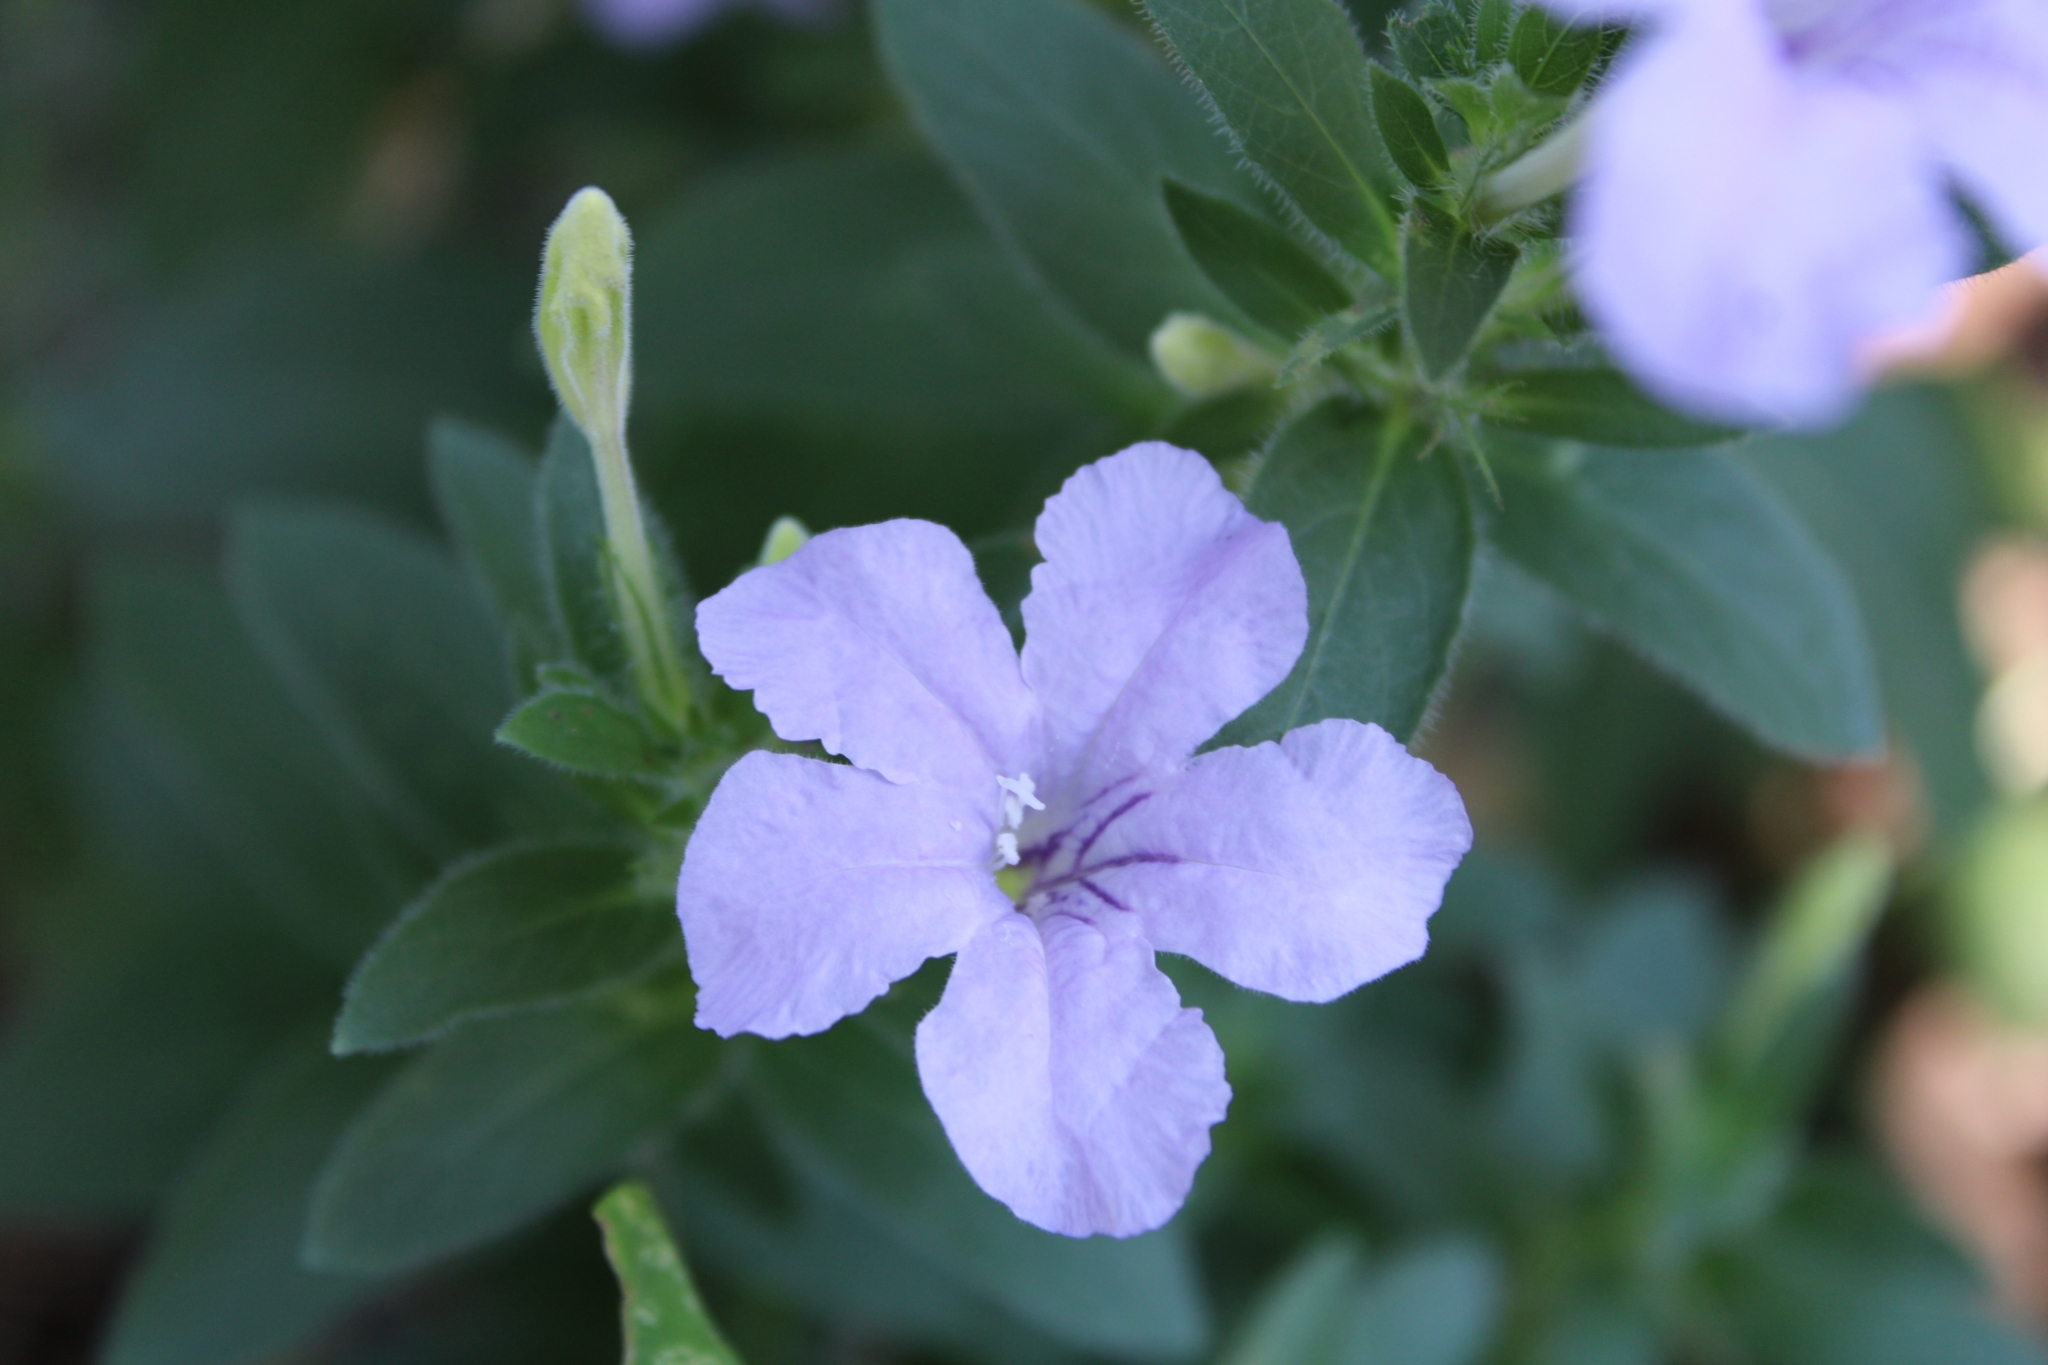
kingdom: Plantae
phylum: Tracheophyta
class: Magnoliopsida
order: Lamiales
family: Acanthaceae
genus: Ruellia
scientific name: Ruellia humilis
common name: Fringe-leaf ruellia
